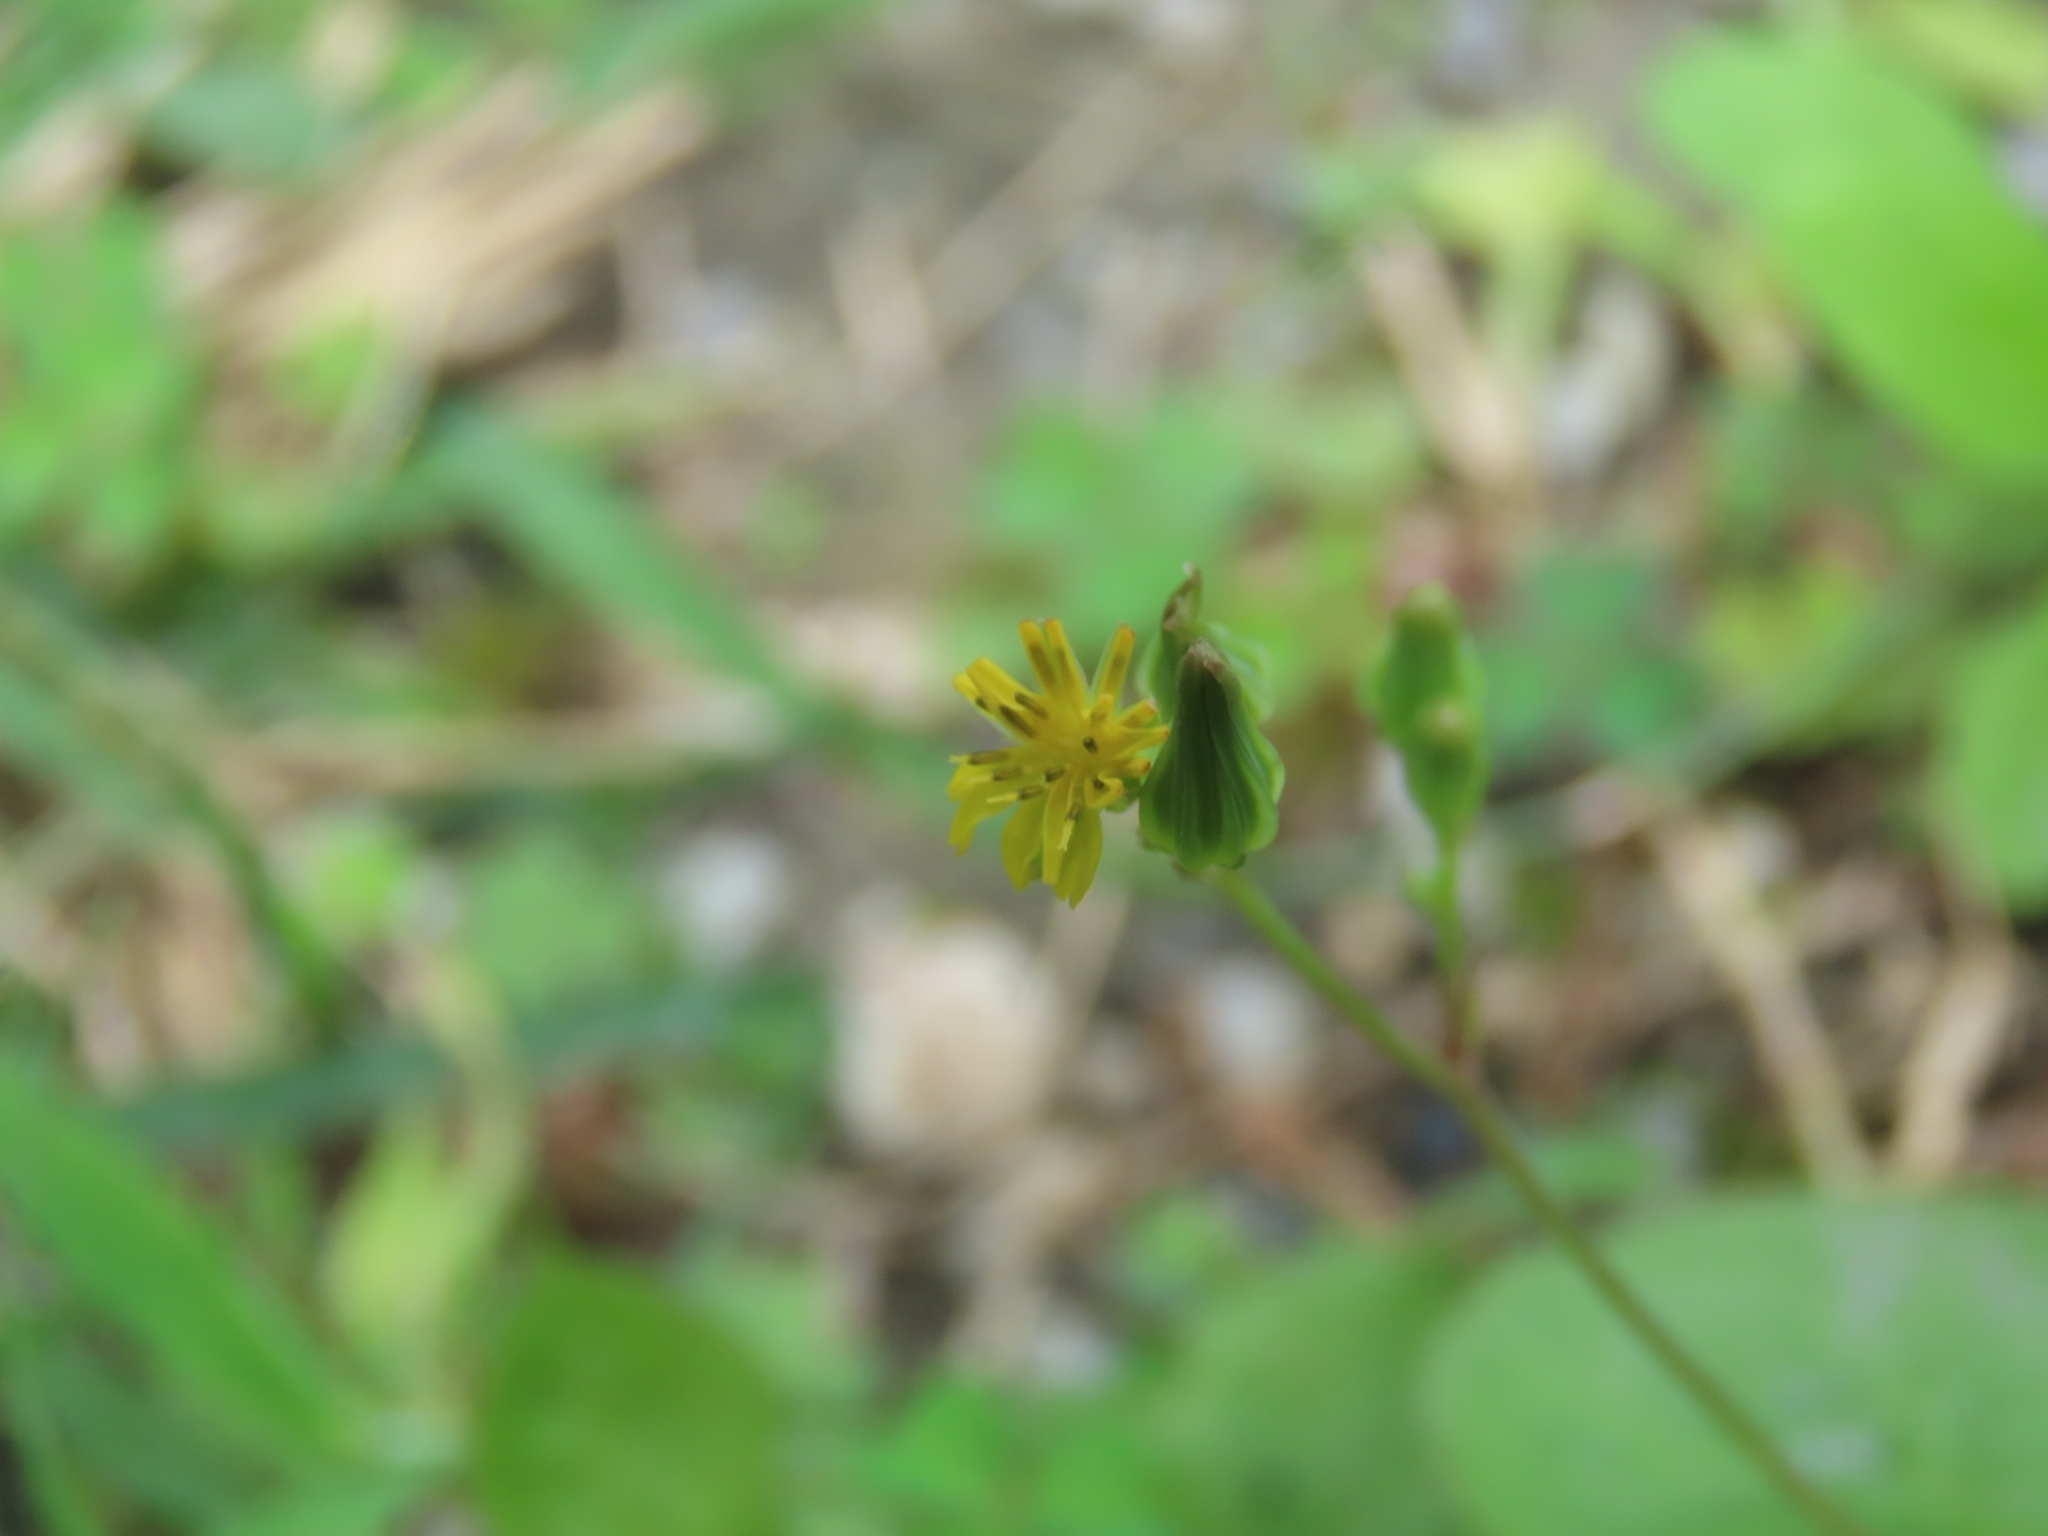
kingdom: Plantae
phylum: Tracheophyta
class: Magnoliopsida
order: Asterales
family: Asteraceae
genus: Youngia
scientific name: Youngia japonica
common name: Oriental false hawksbeard
